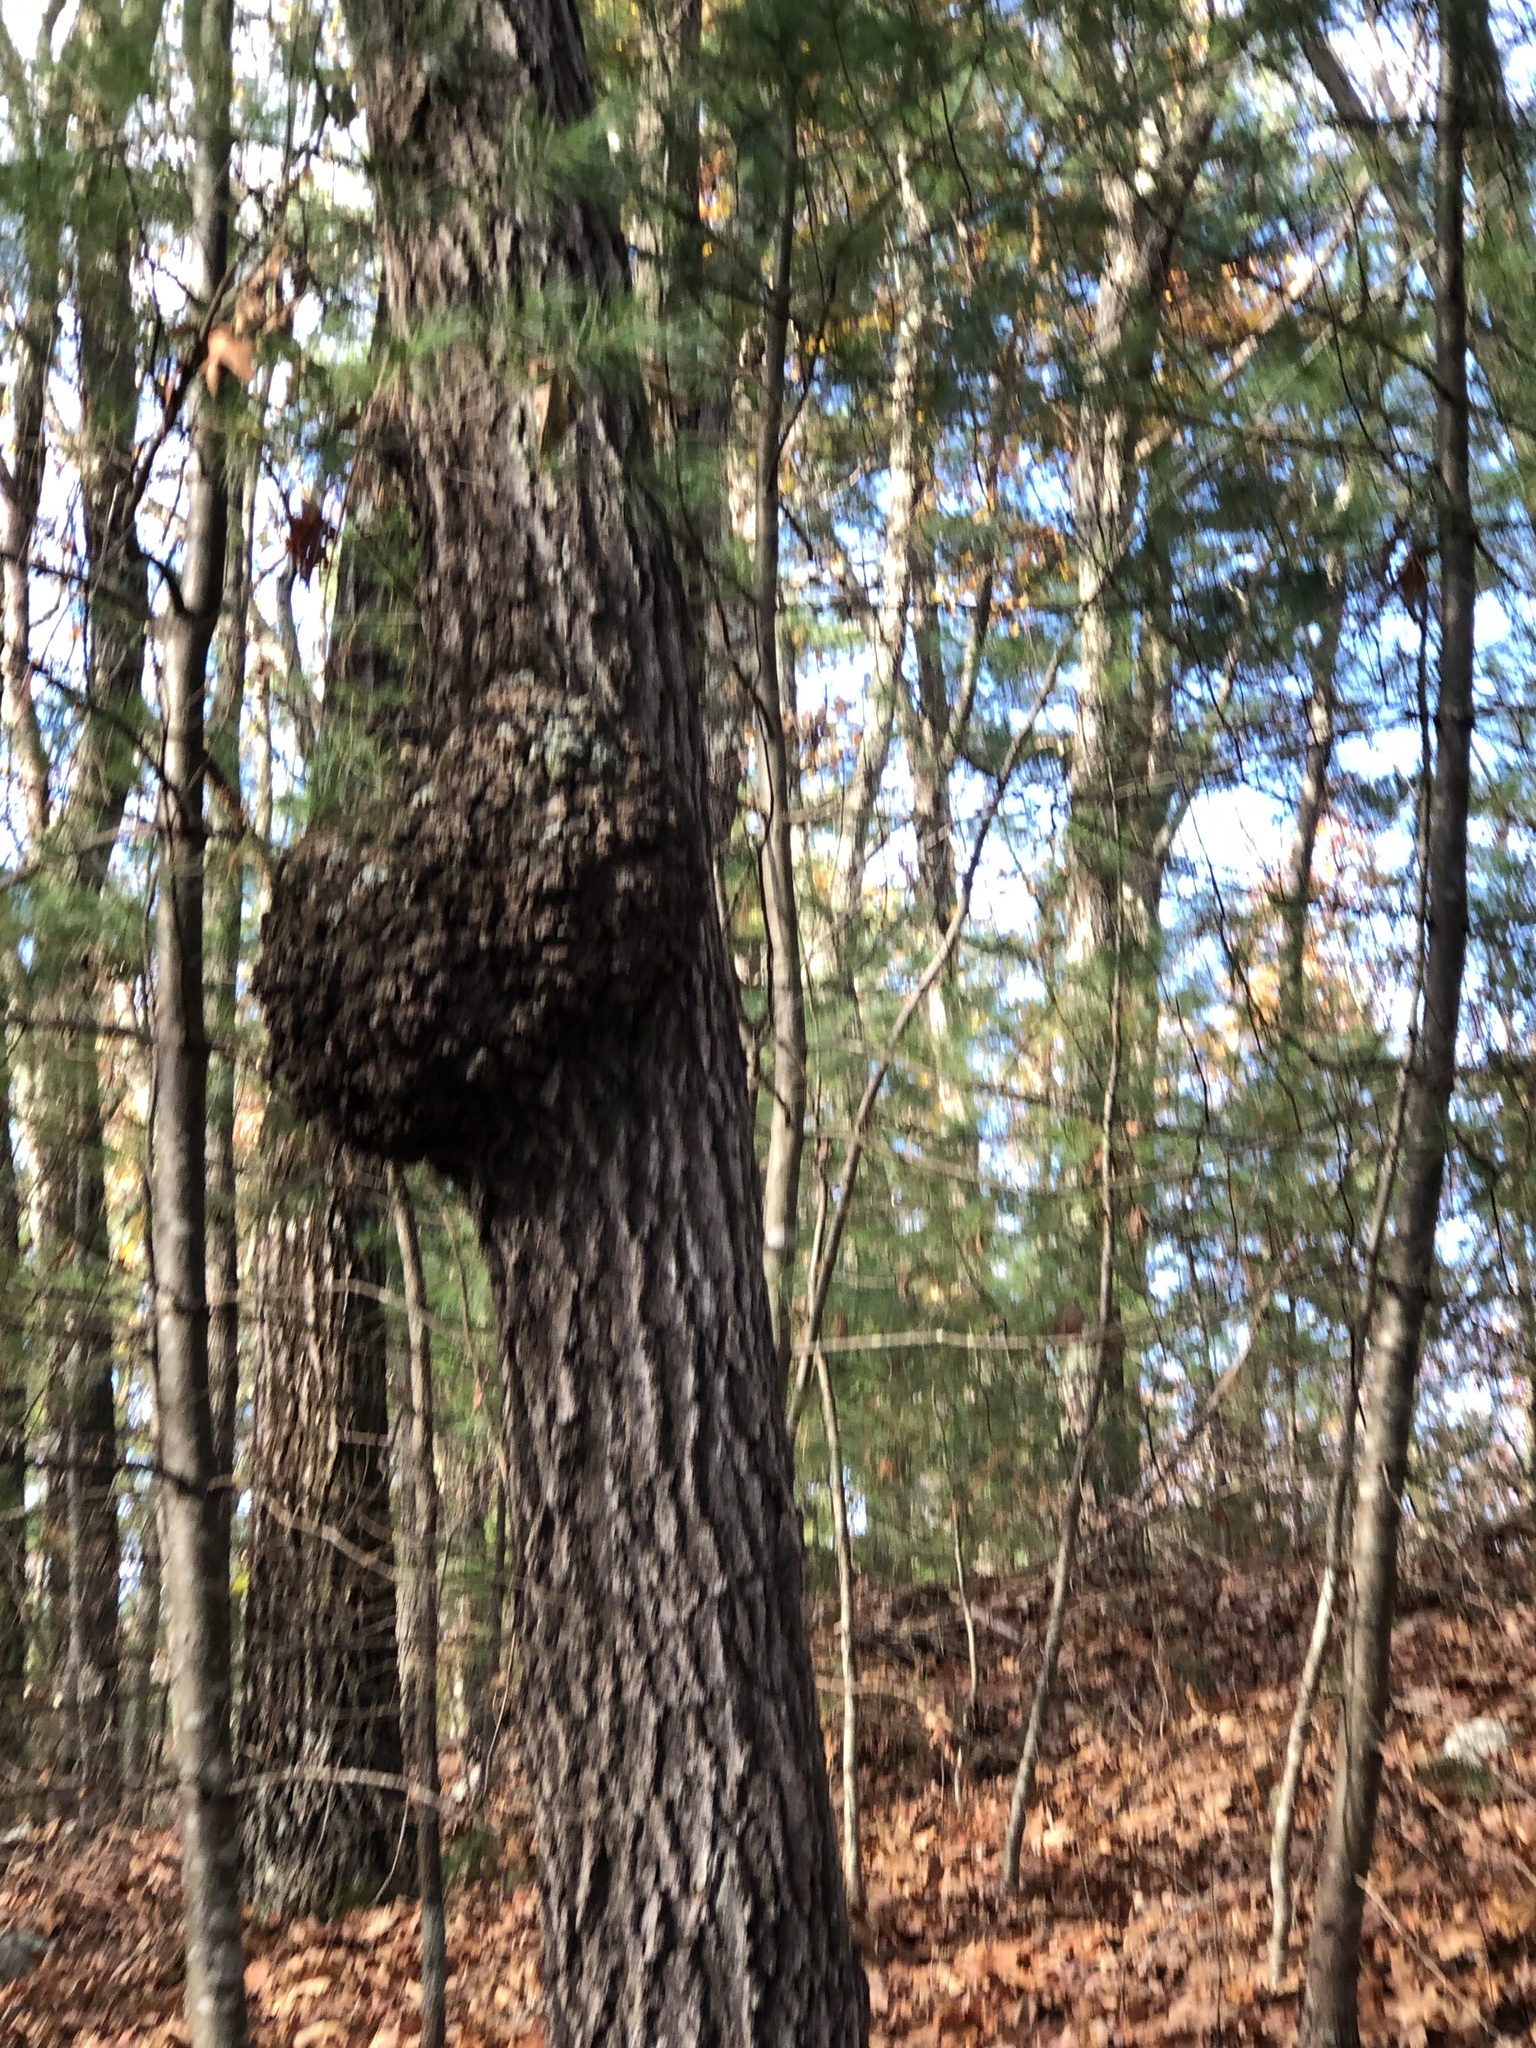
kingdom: Bacteria
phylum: Proteobacteria
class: Alphaproteobacteria
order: Rhizobiales
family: Rhizobiaceae
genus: Rhizobium
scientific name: Rhizobium Agrobacterium radiobacter
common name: Bacterial crown gall
